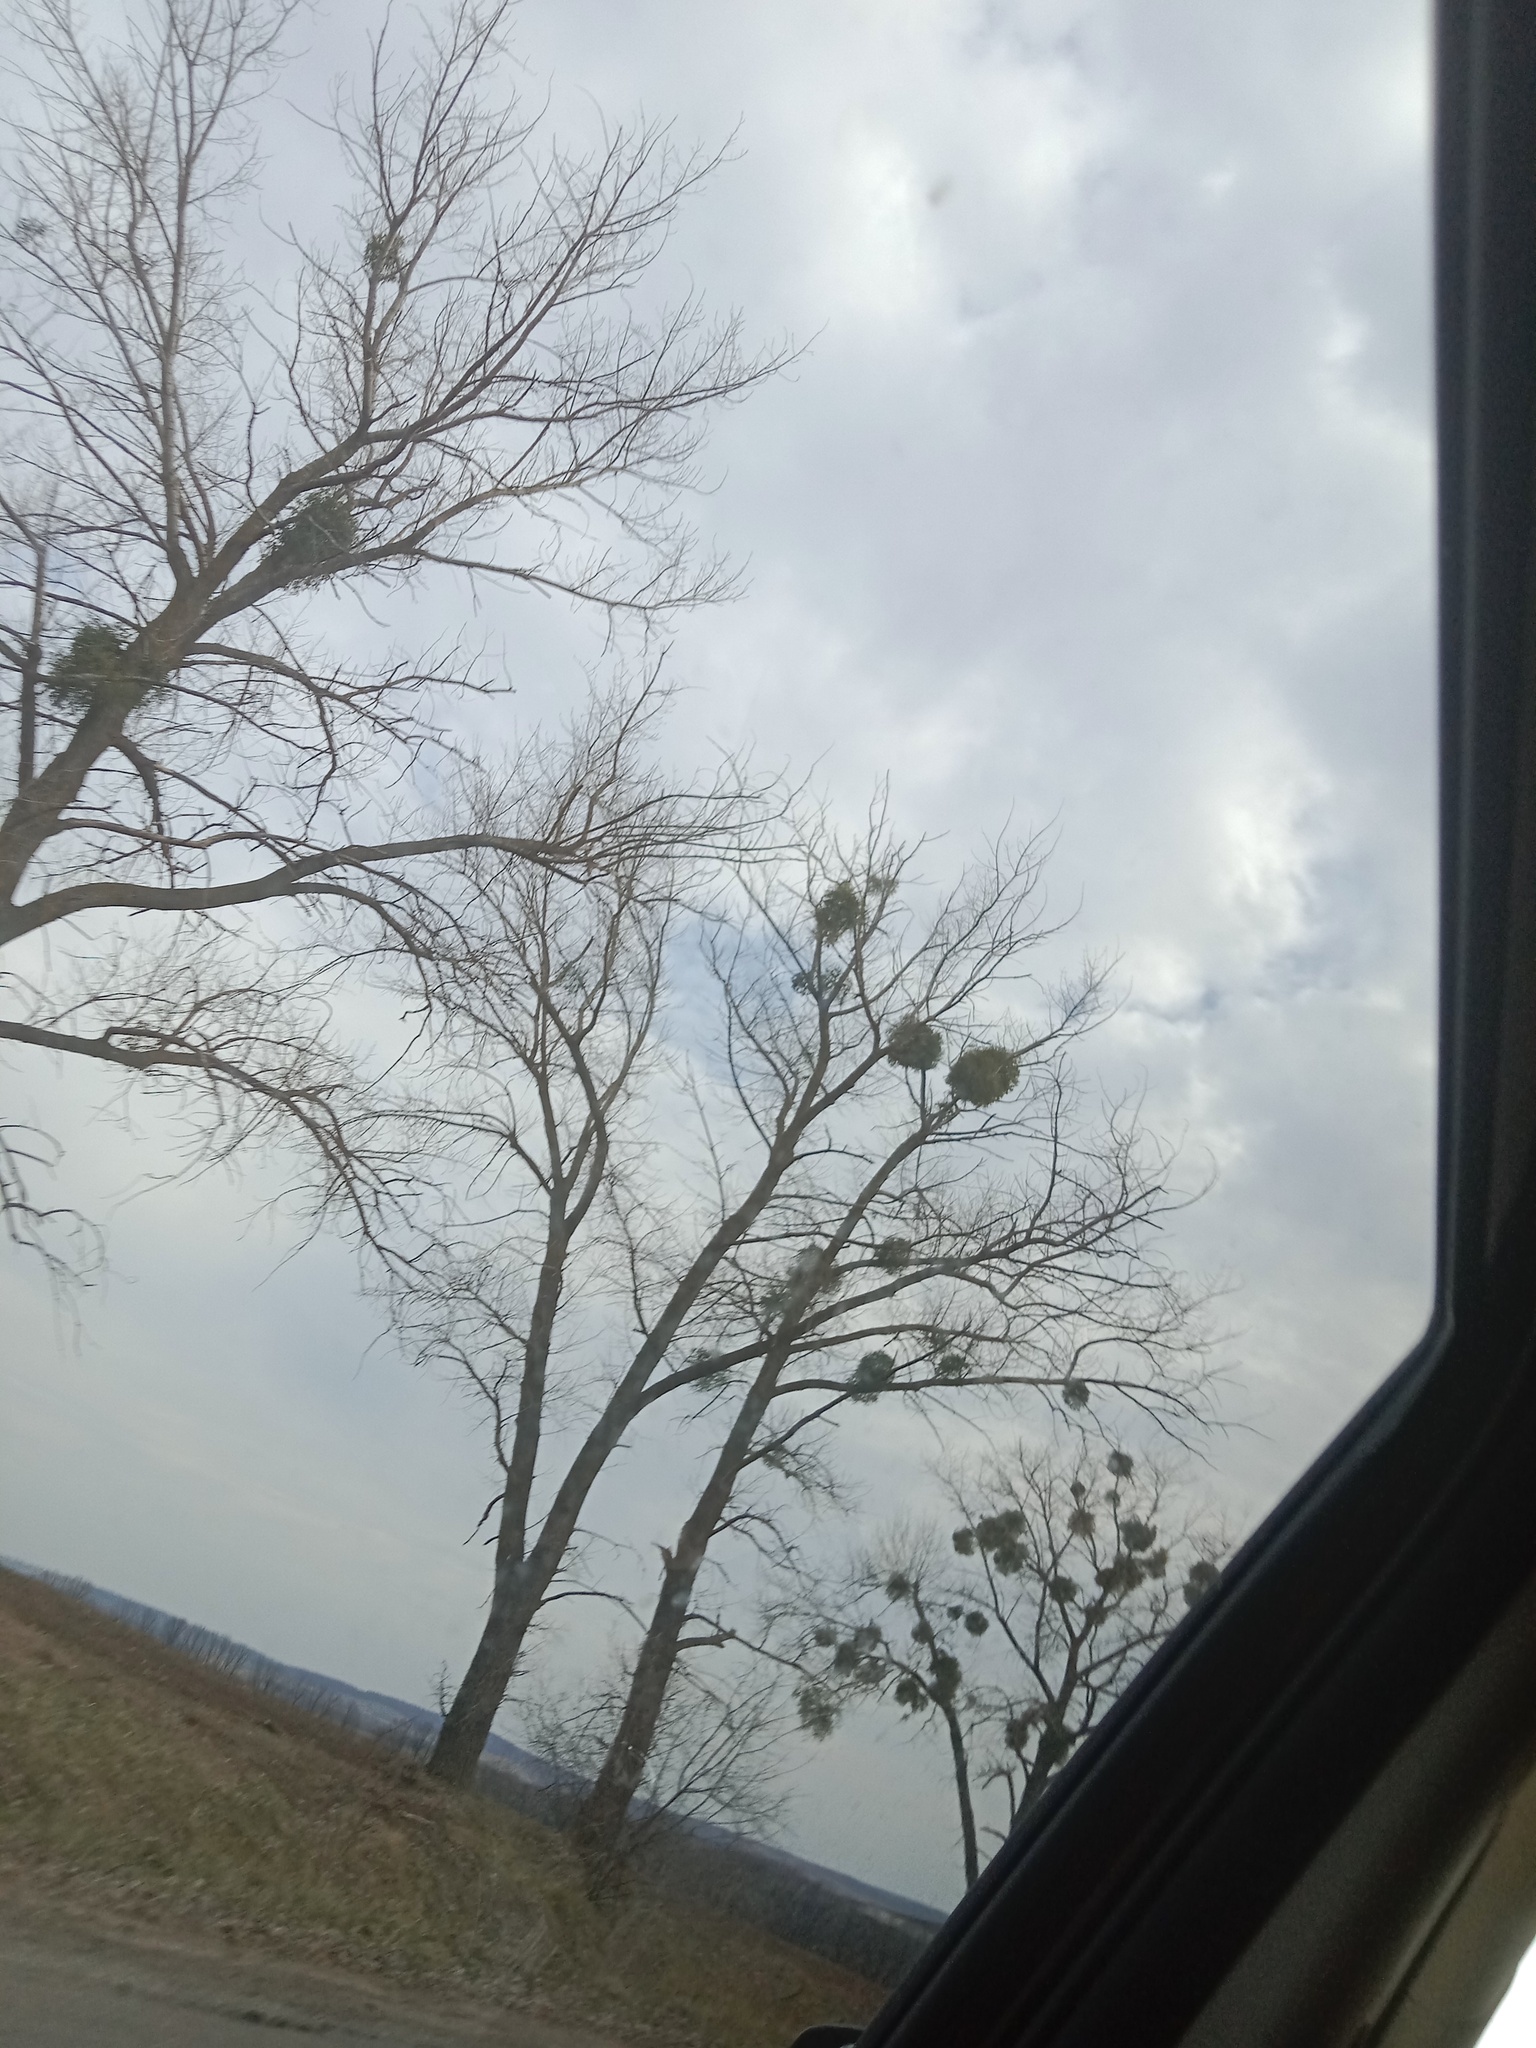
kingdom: Plantae
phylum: Tracheophyta
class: Magnoliopsida
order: Santalales
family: Viscaceae
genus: Viscum
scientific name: Viscum album
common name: Mistletoe
